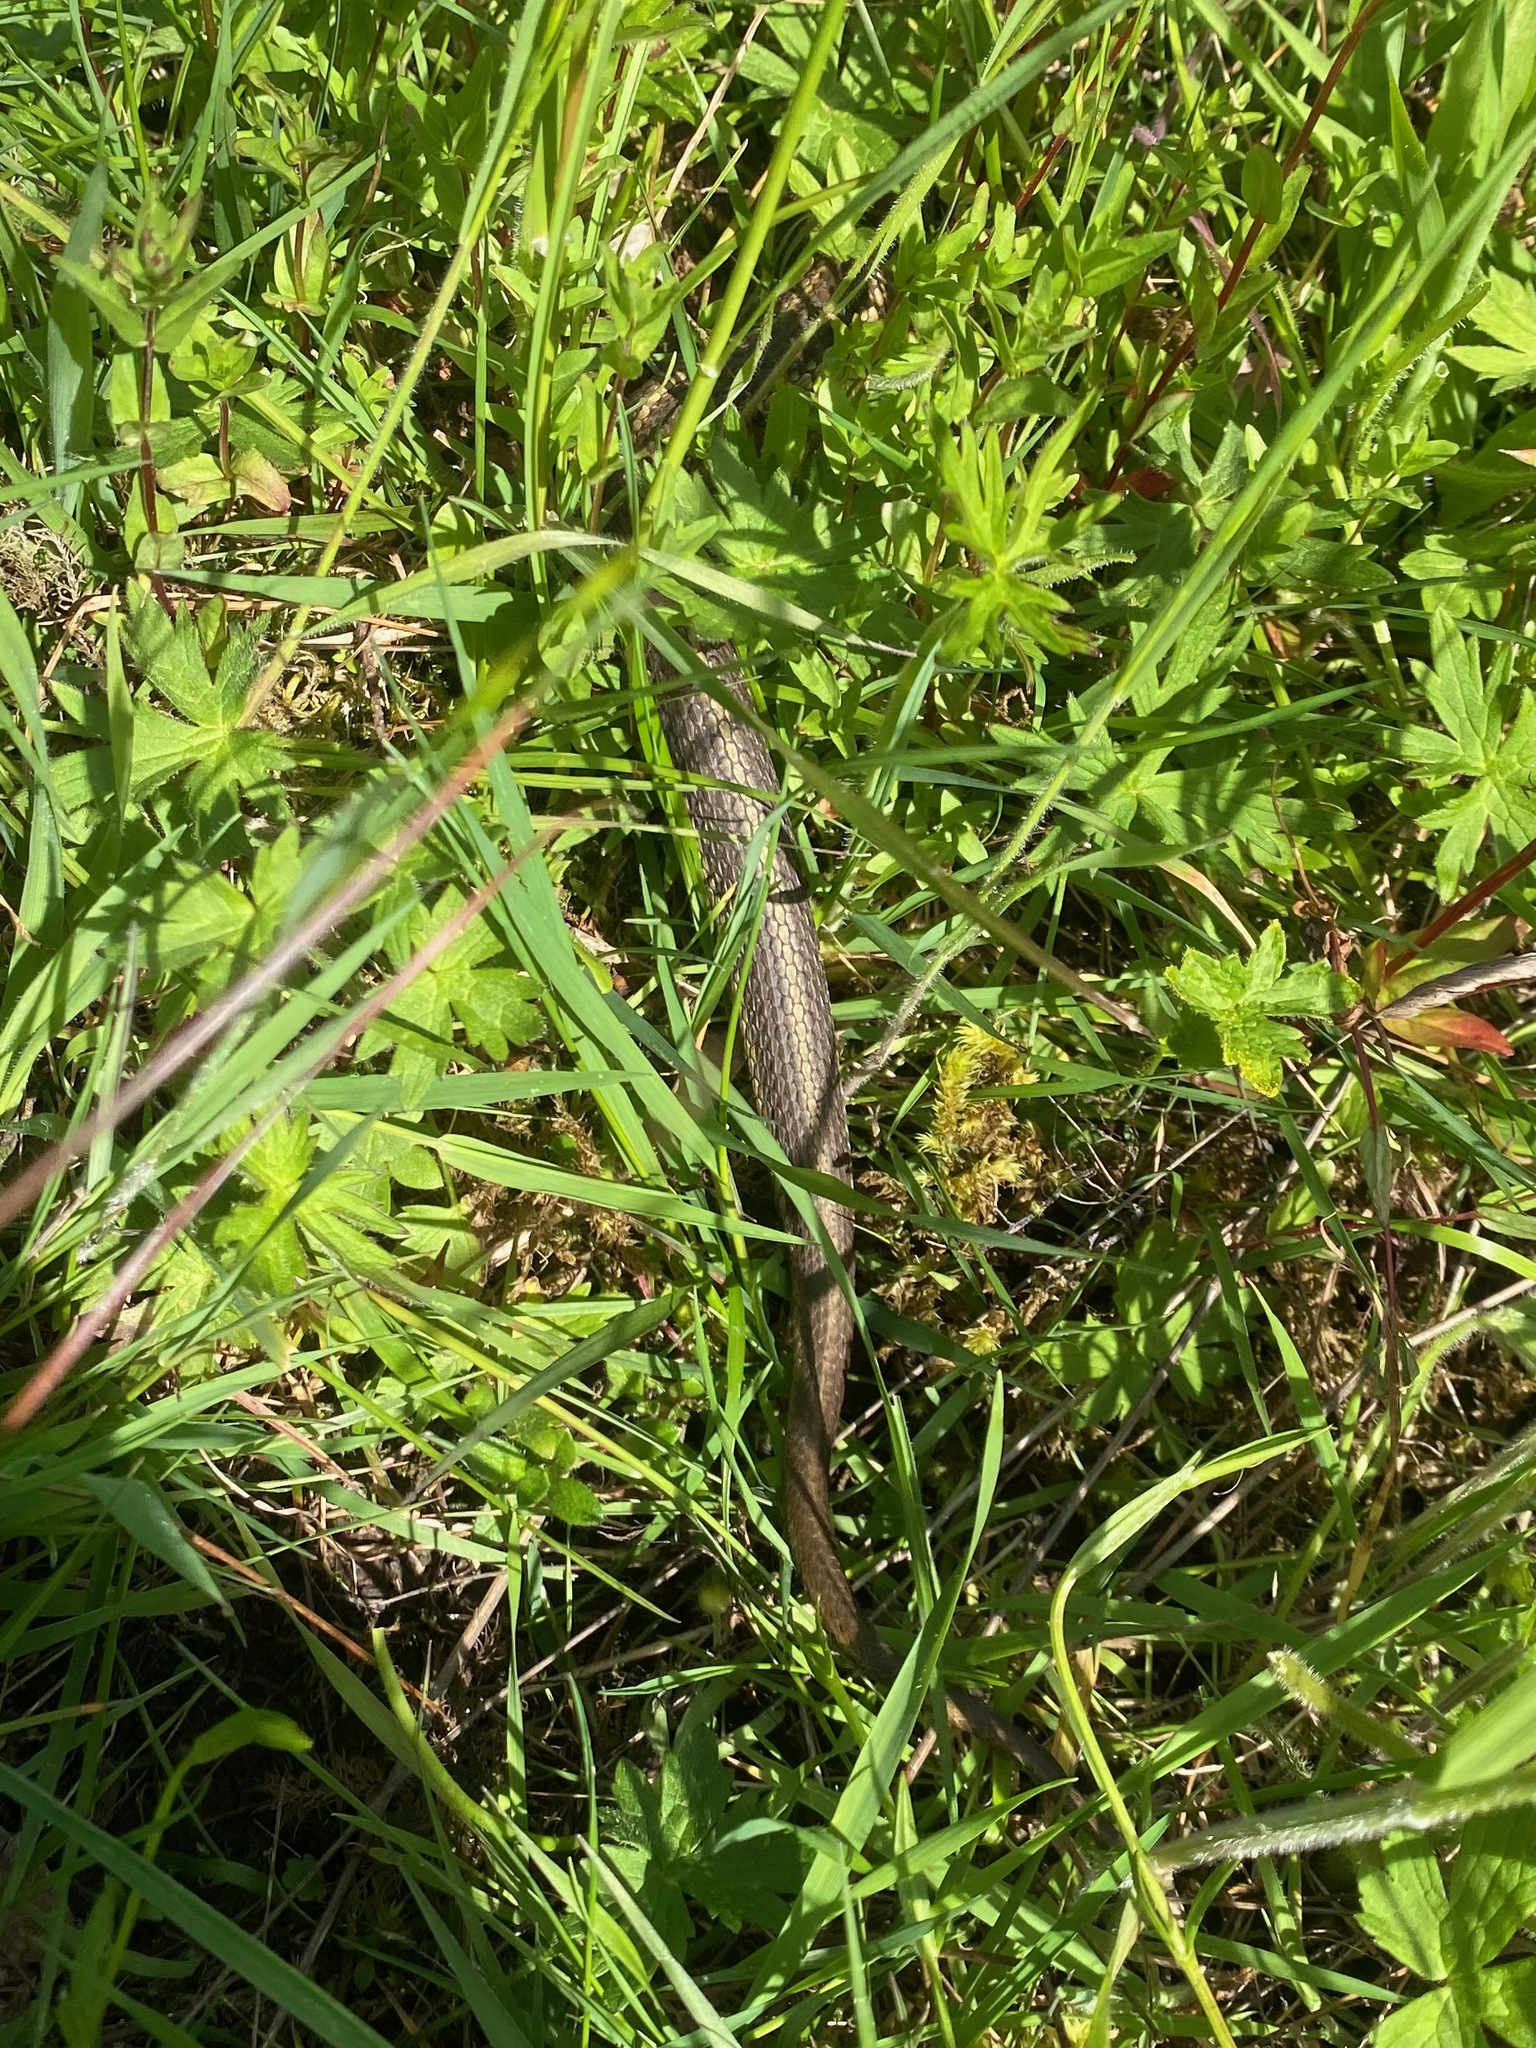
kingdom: Animalia
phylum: Chordata
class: Squamata
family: Colubridae
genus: Thamnophis
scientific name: Thamnophis
